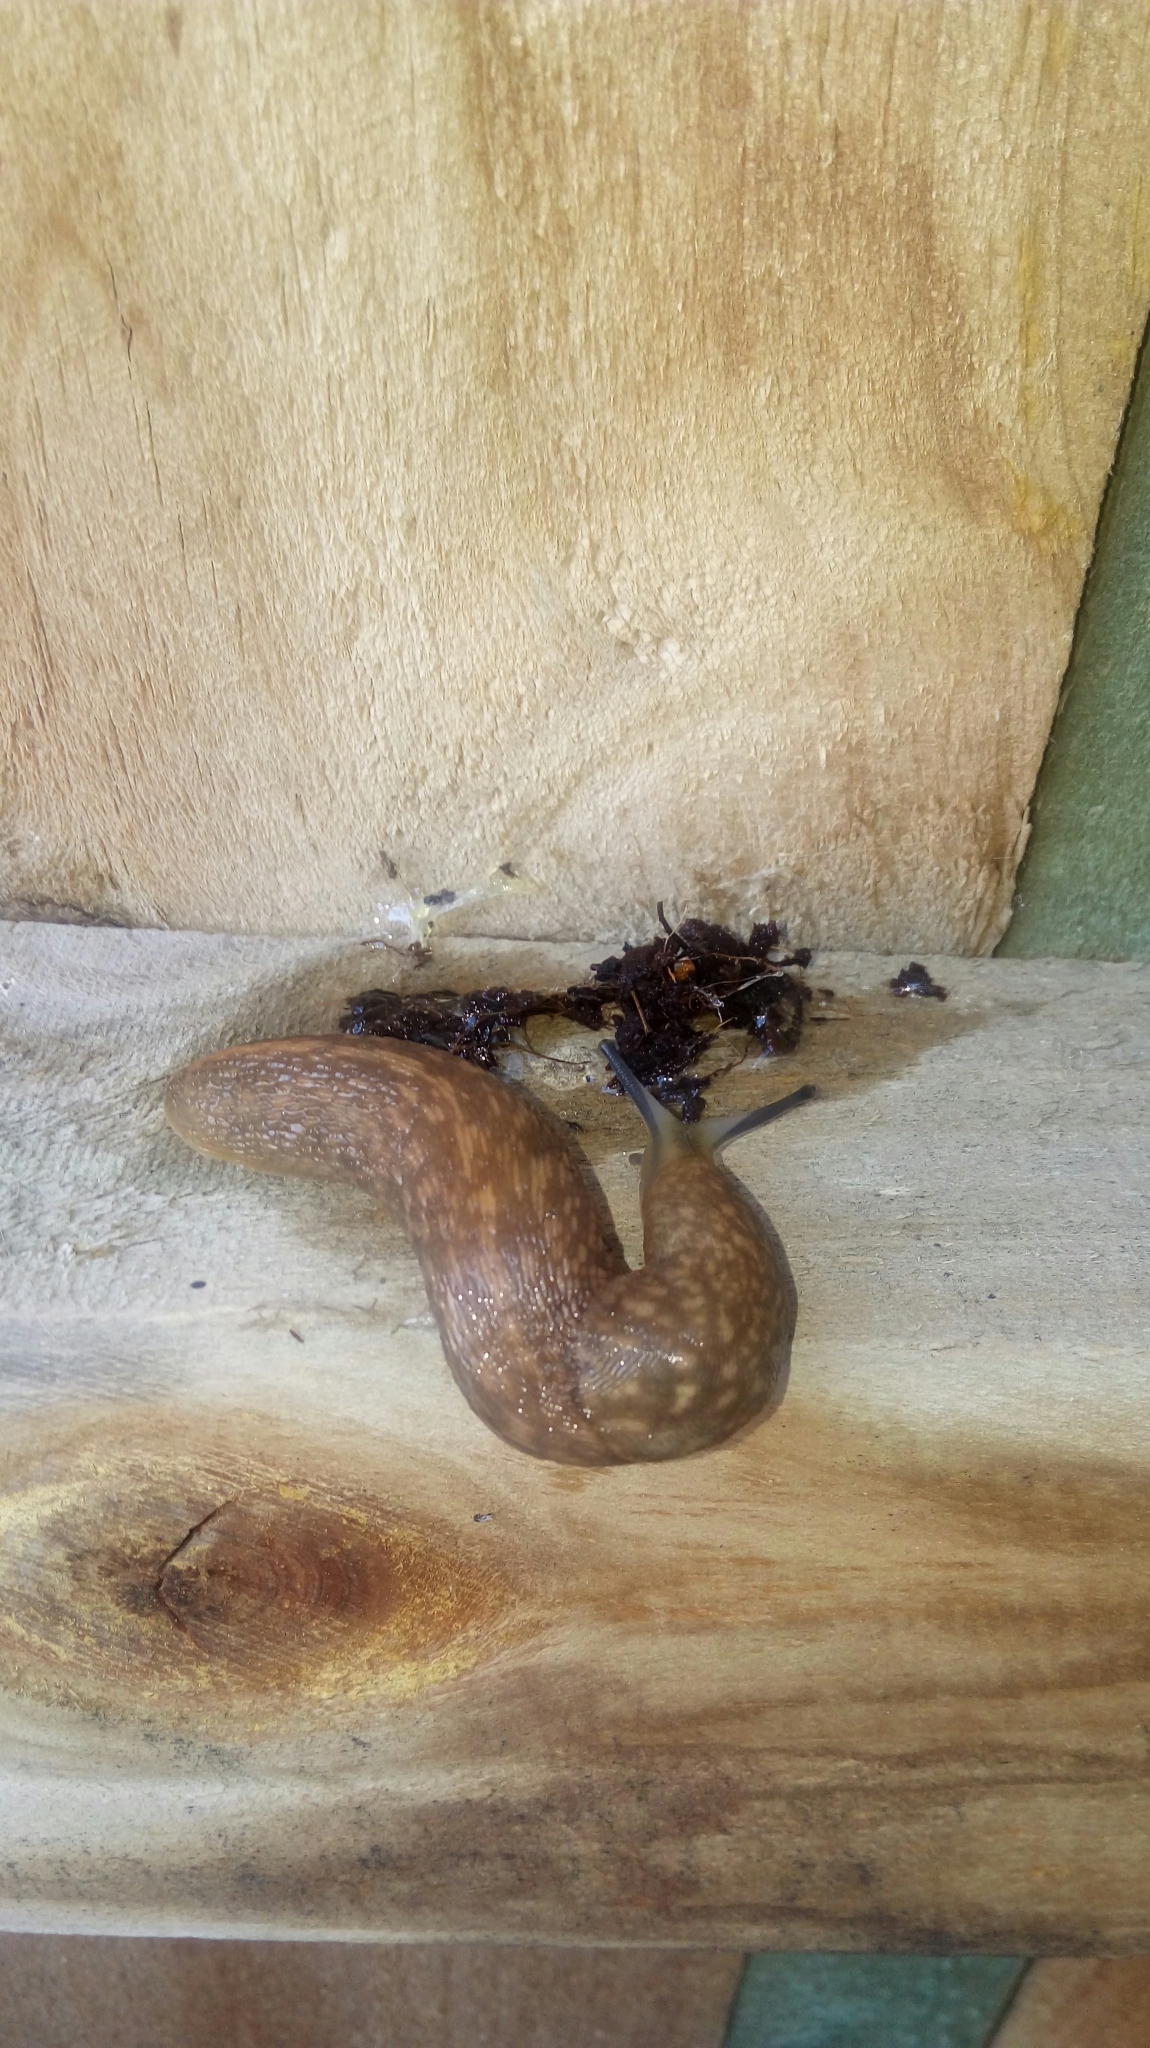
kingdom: Animalia
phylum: Mollusca
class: Gastropoda
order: Stylommatophora
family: Limacidae
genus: Limacus
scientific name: Limacus flavus
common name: Yellow gardenslug
